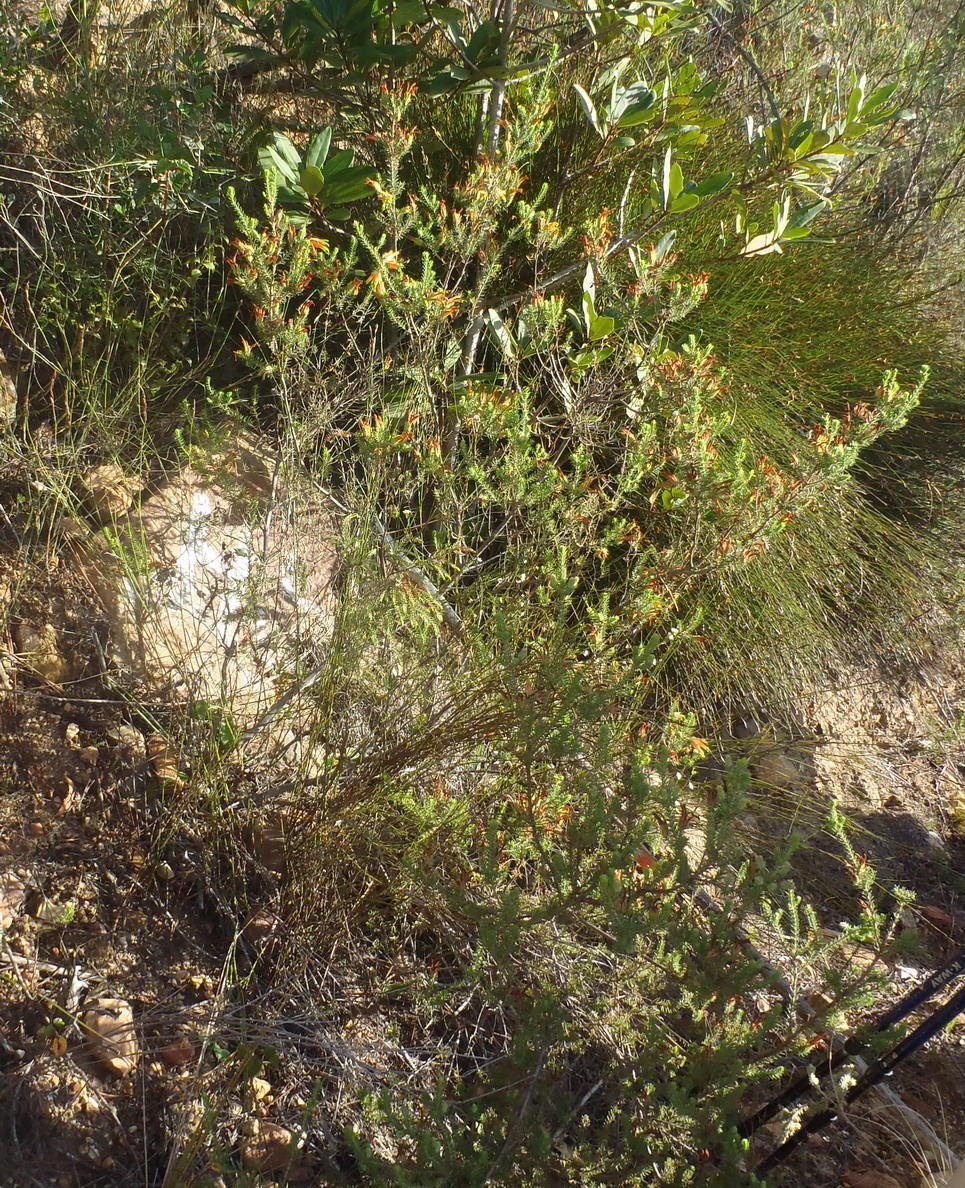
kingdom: Plantae
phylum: Tracheophyta
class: Magnoliopsida
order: Ericales
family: Ericaceae
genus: Erica
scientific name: Erica unicolor
